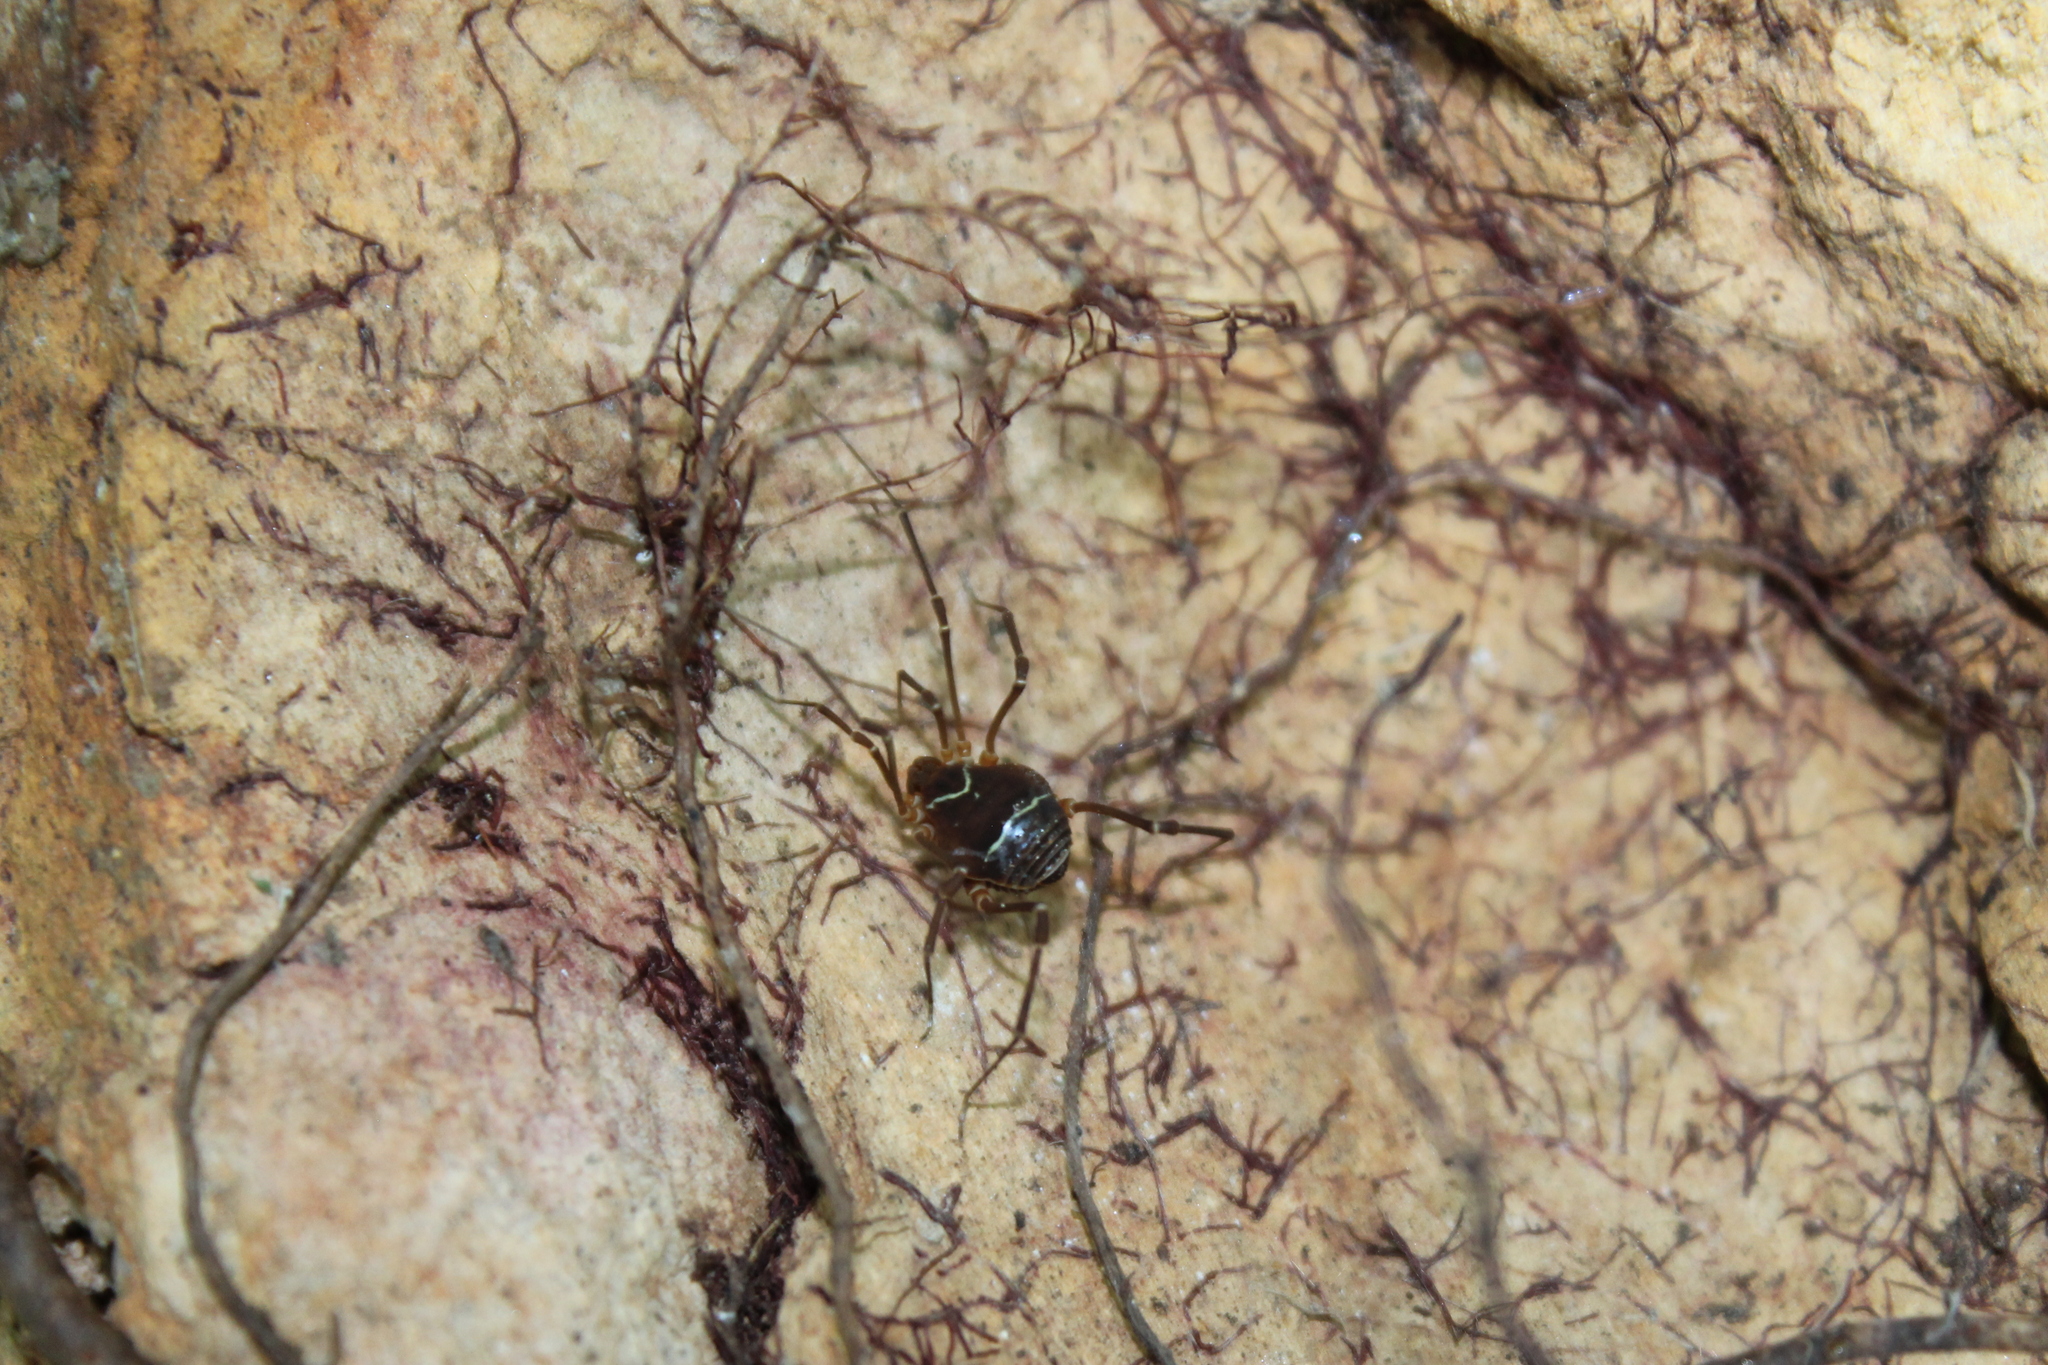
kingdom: Animalia
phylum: Arthropoda
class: Arachnida
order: Opiliones
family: Cosmetidae
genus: Libitioides
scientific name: Libitioides sayi
